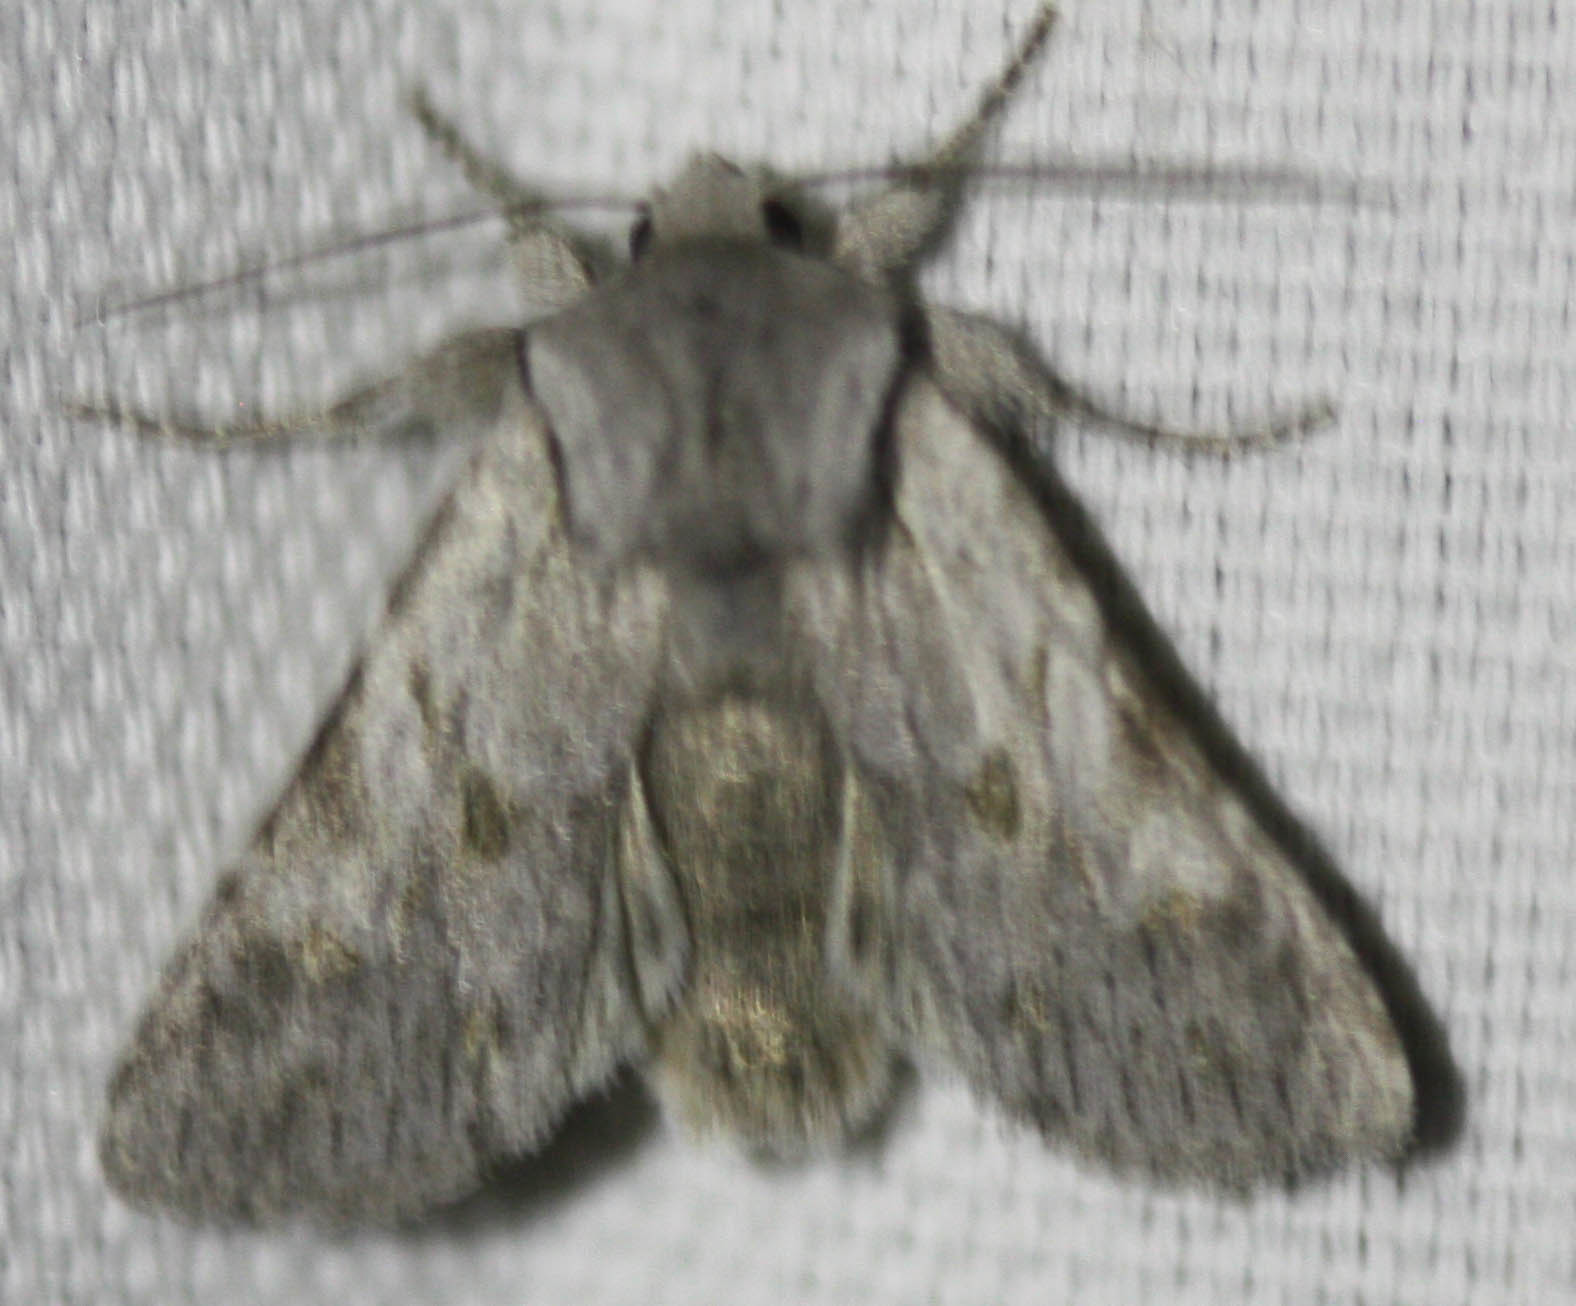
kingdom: Animalia
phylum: Arthropoda
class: Insecta
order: Lepidoptera
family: Noctuidae
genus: Lacinipolia
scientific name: Lacinipolia patalis
